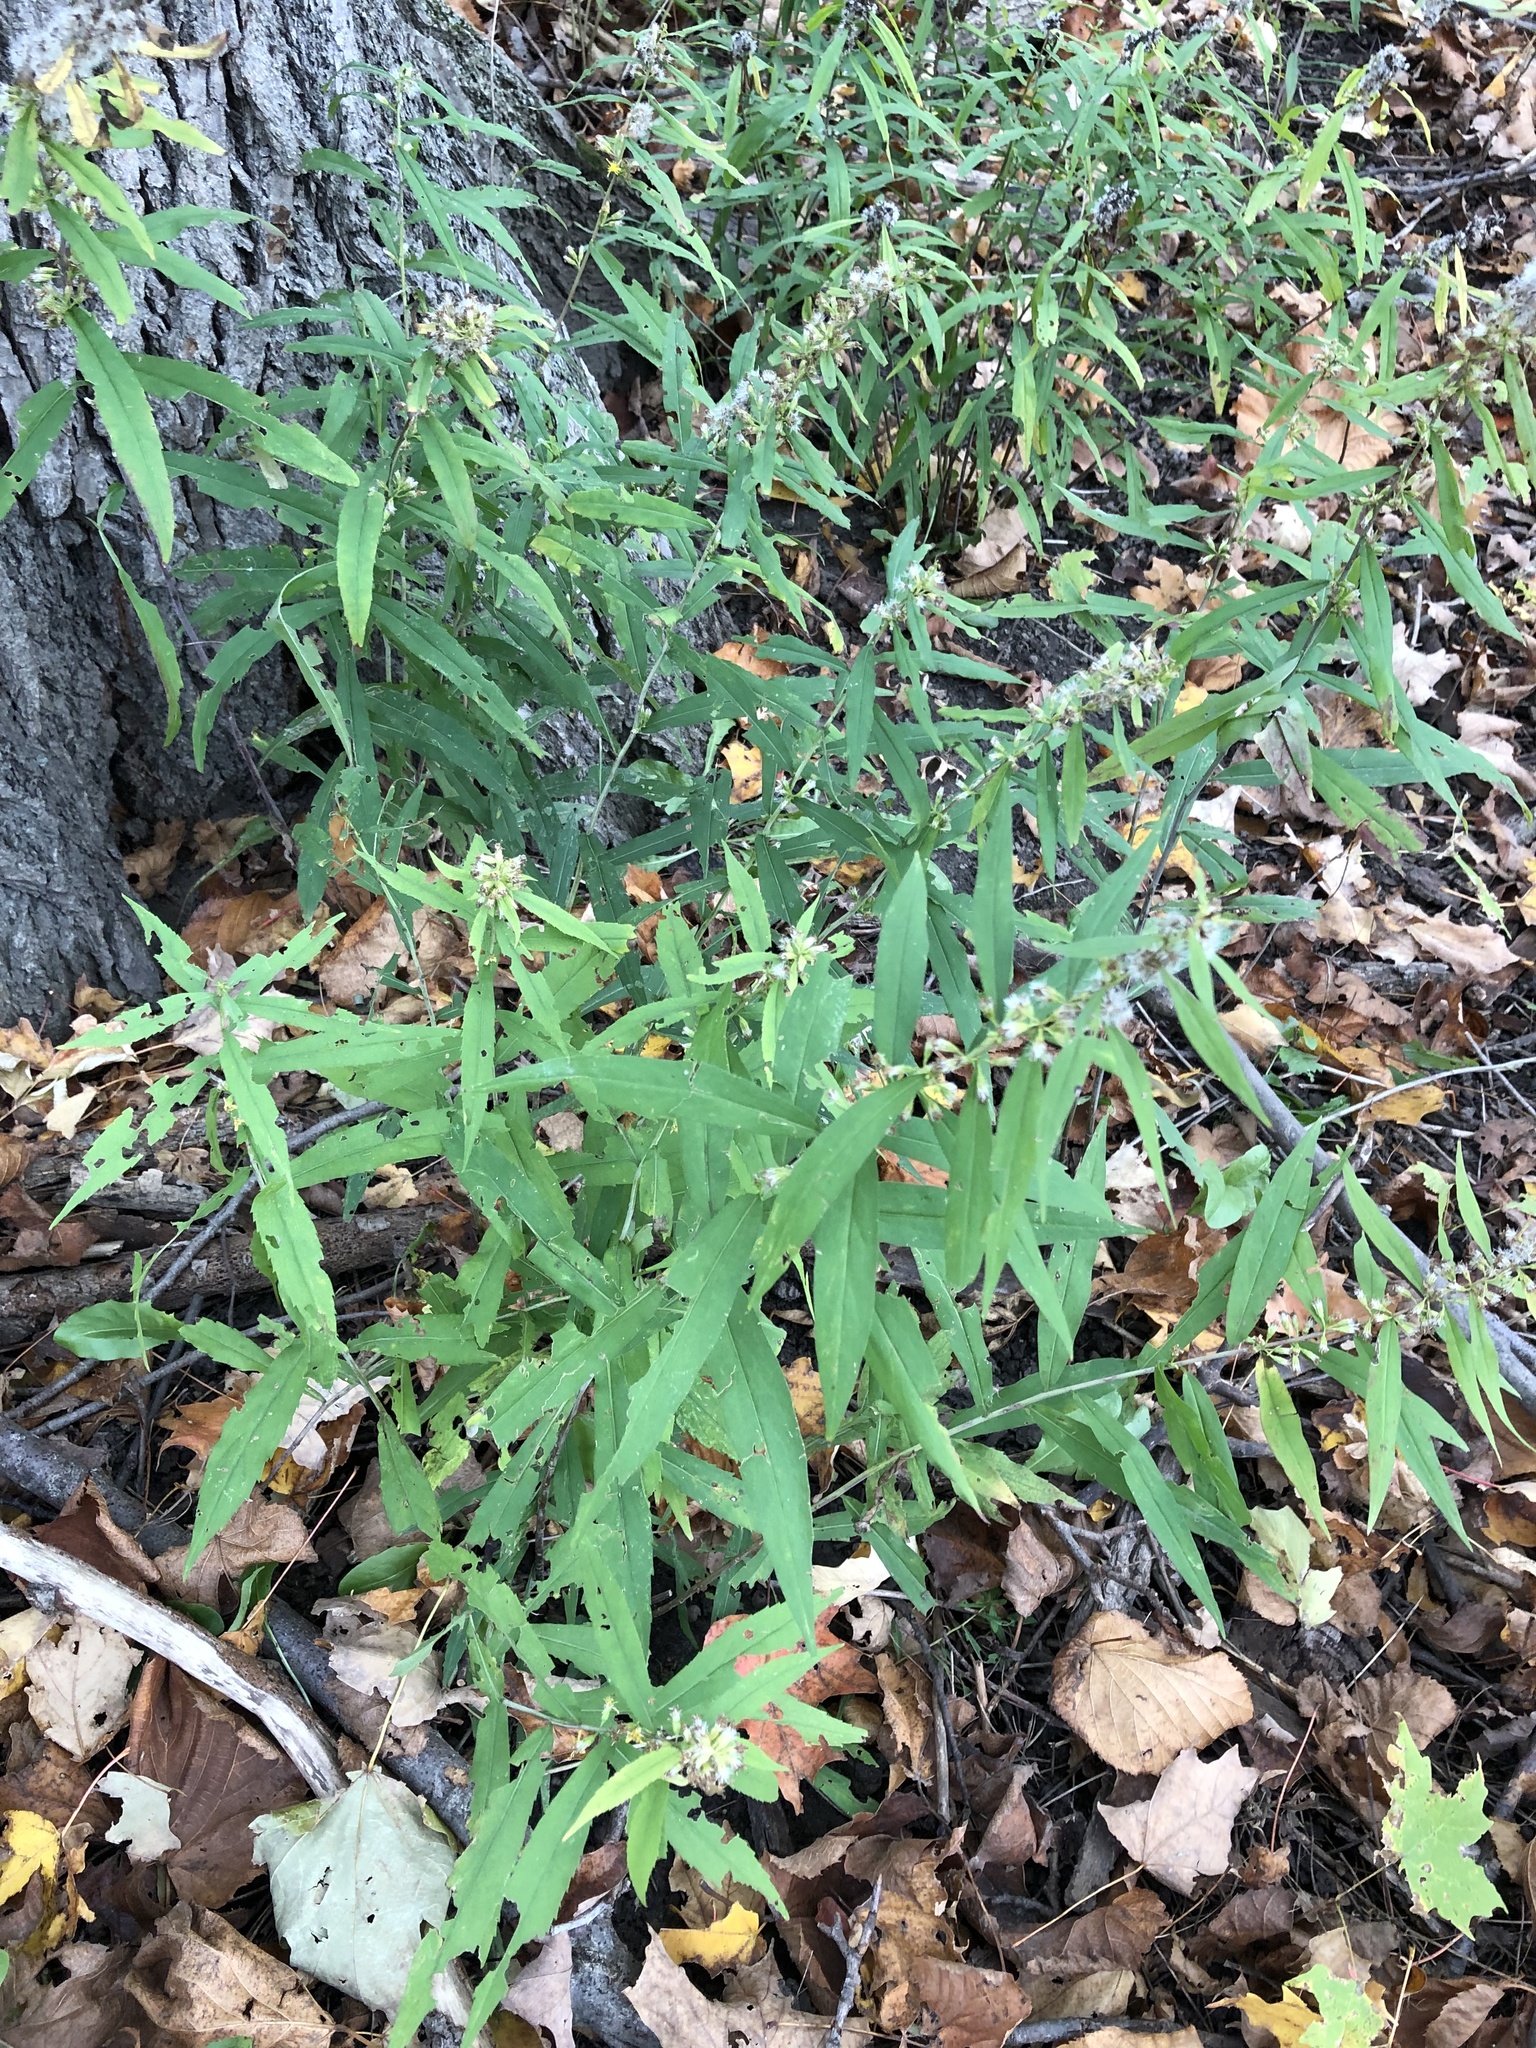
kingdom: Plantae
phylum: Tracheophyta
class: Magnoliopsida
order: Asterales
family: Asteraceae
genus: Solidago
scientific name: Solidago caesia
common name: Woodland goldenrod
